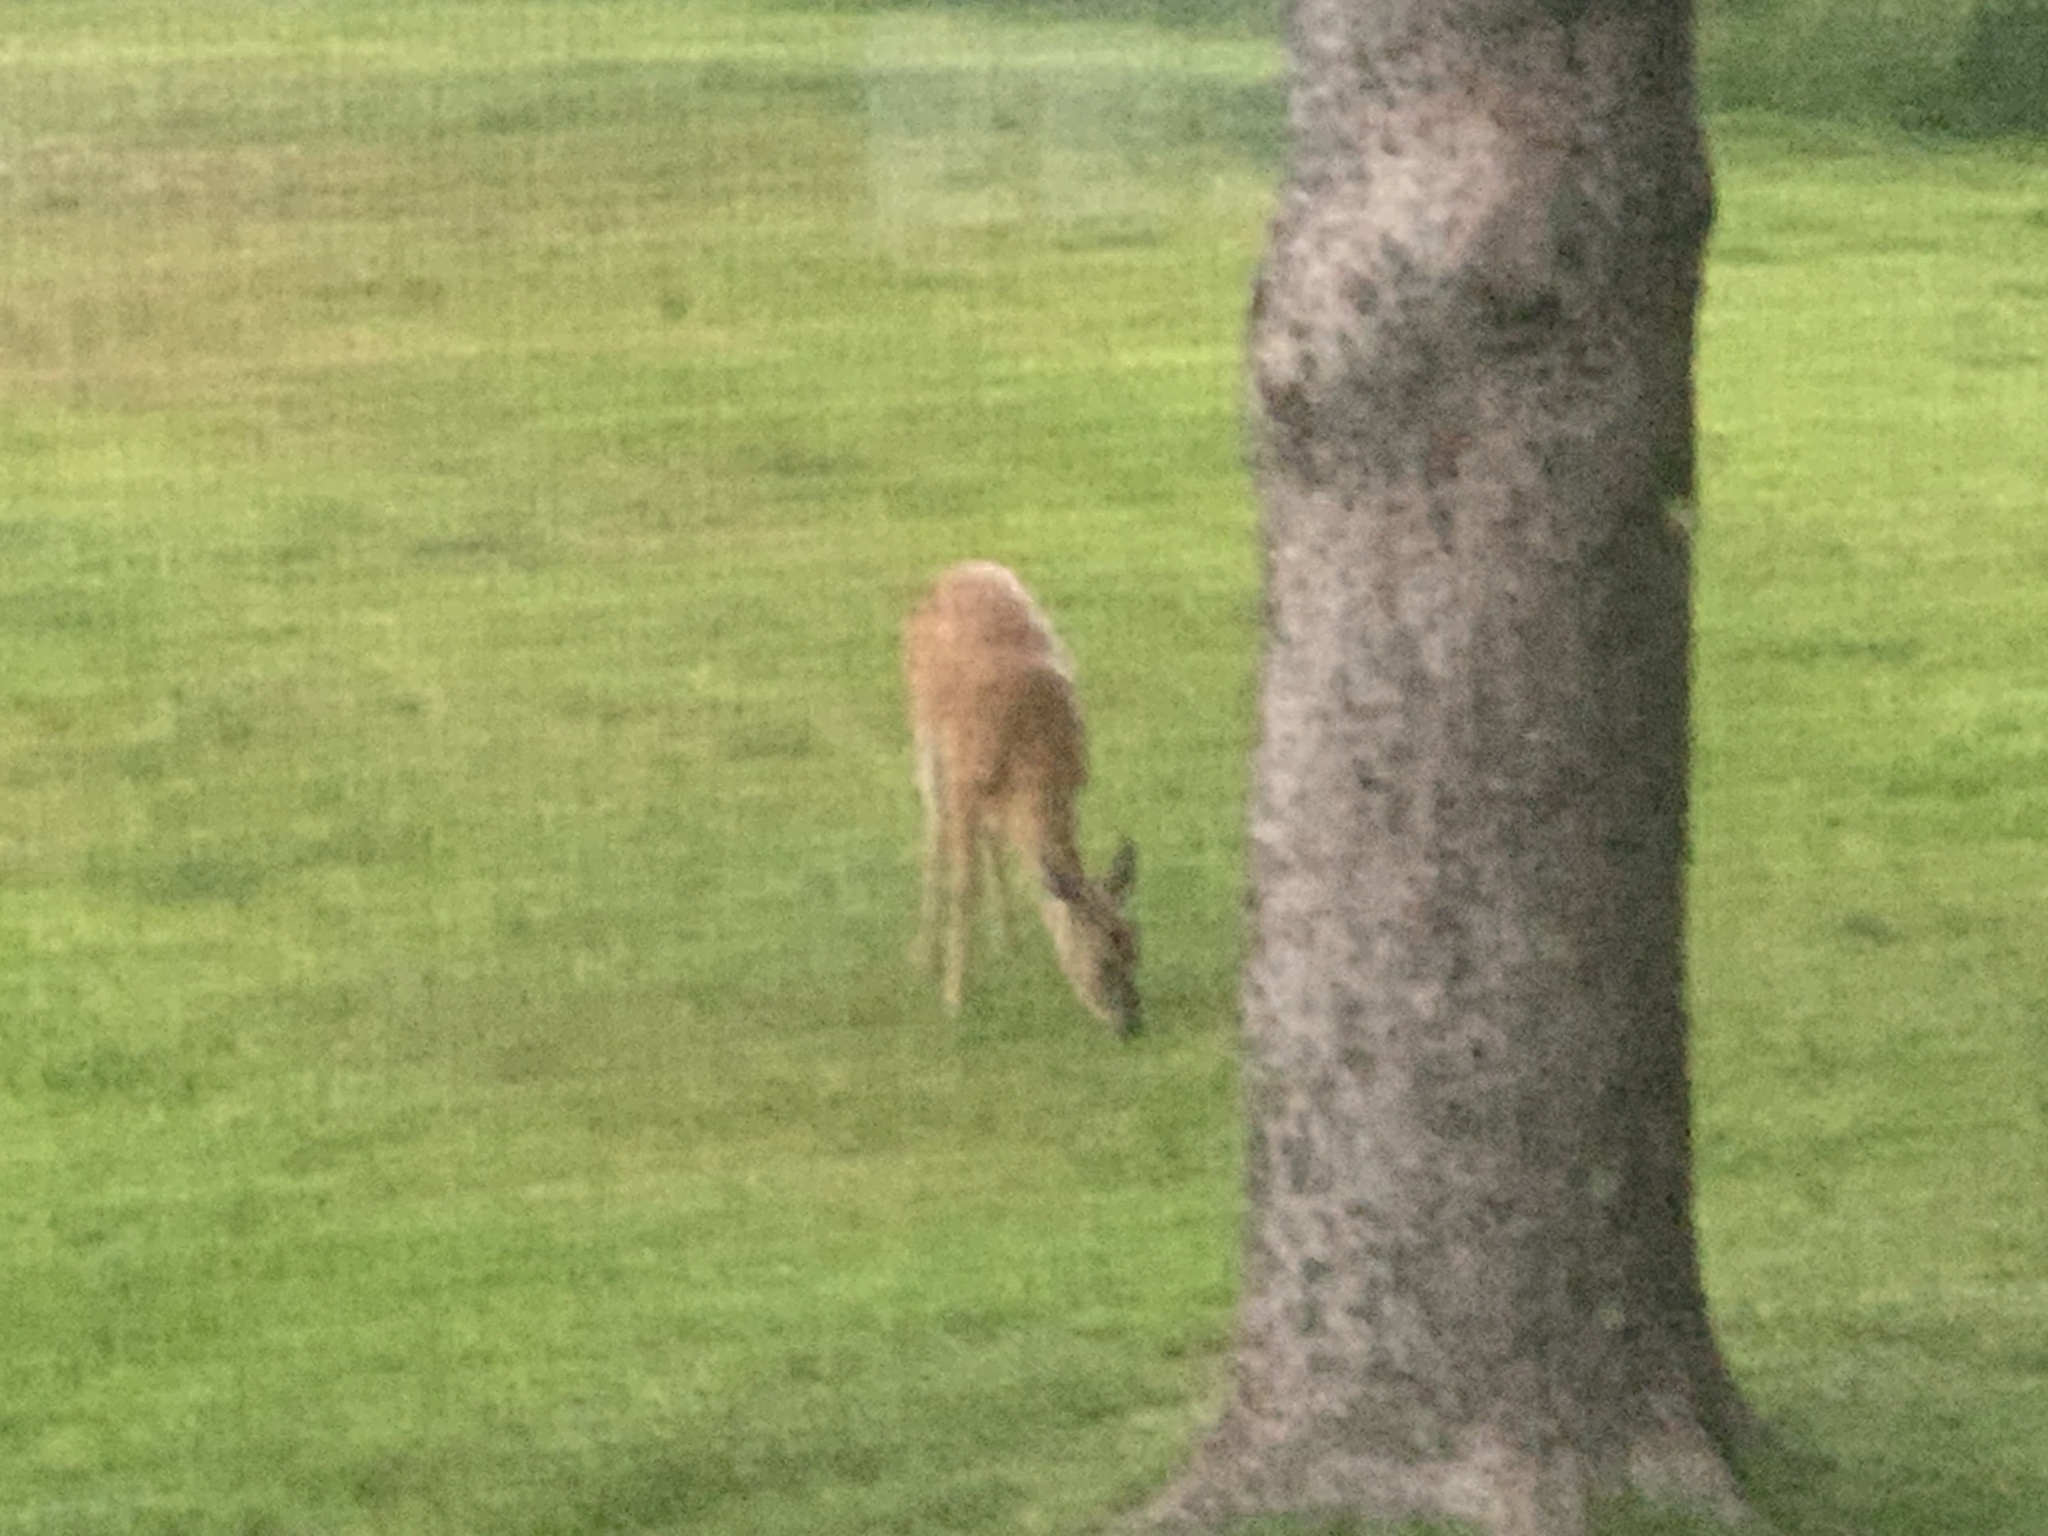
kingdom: Animalia
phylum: Chordata
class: Mammalia
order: Artiodactyla
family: Cervidae
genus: Odocoileus
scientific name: Odocoileus virginianus
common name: White-tailed deer
